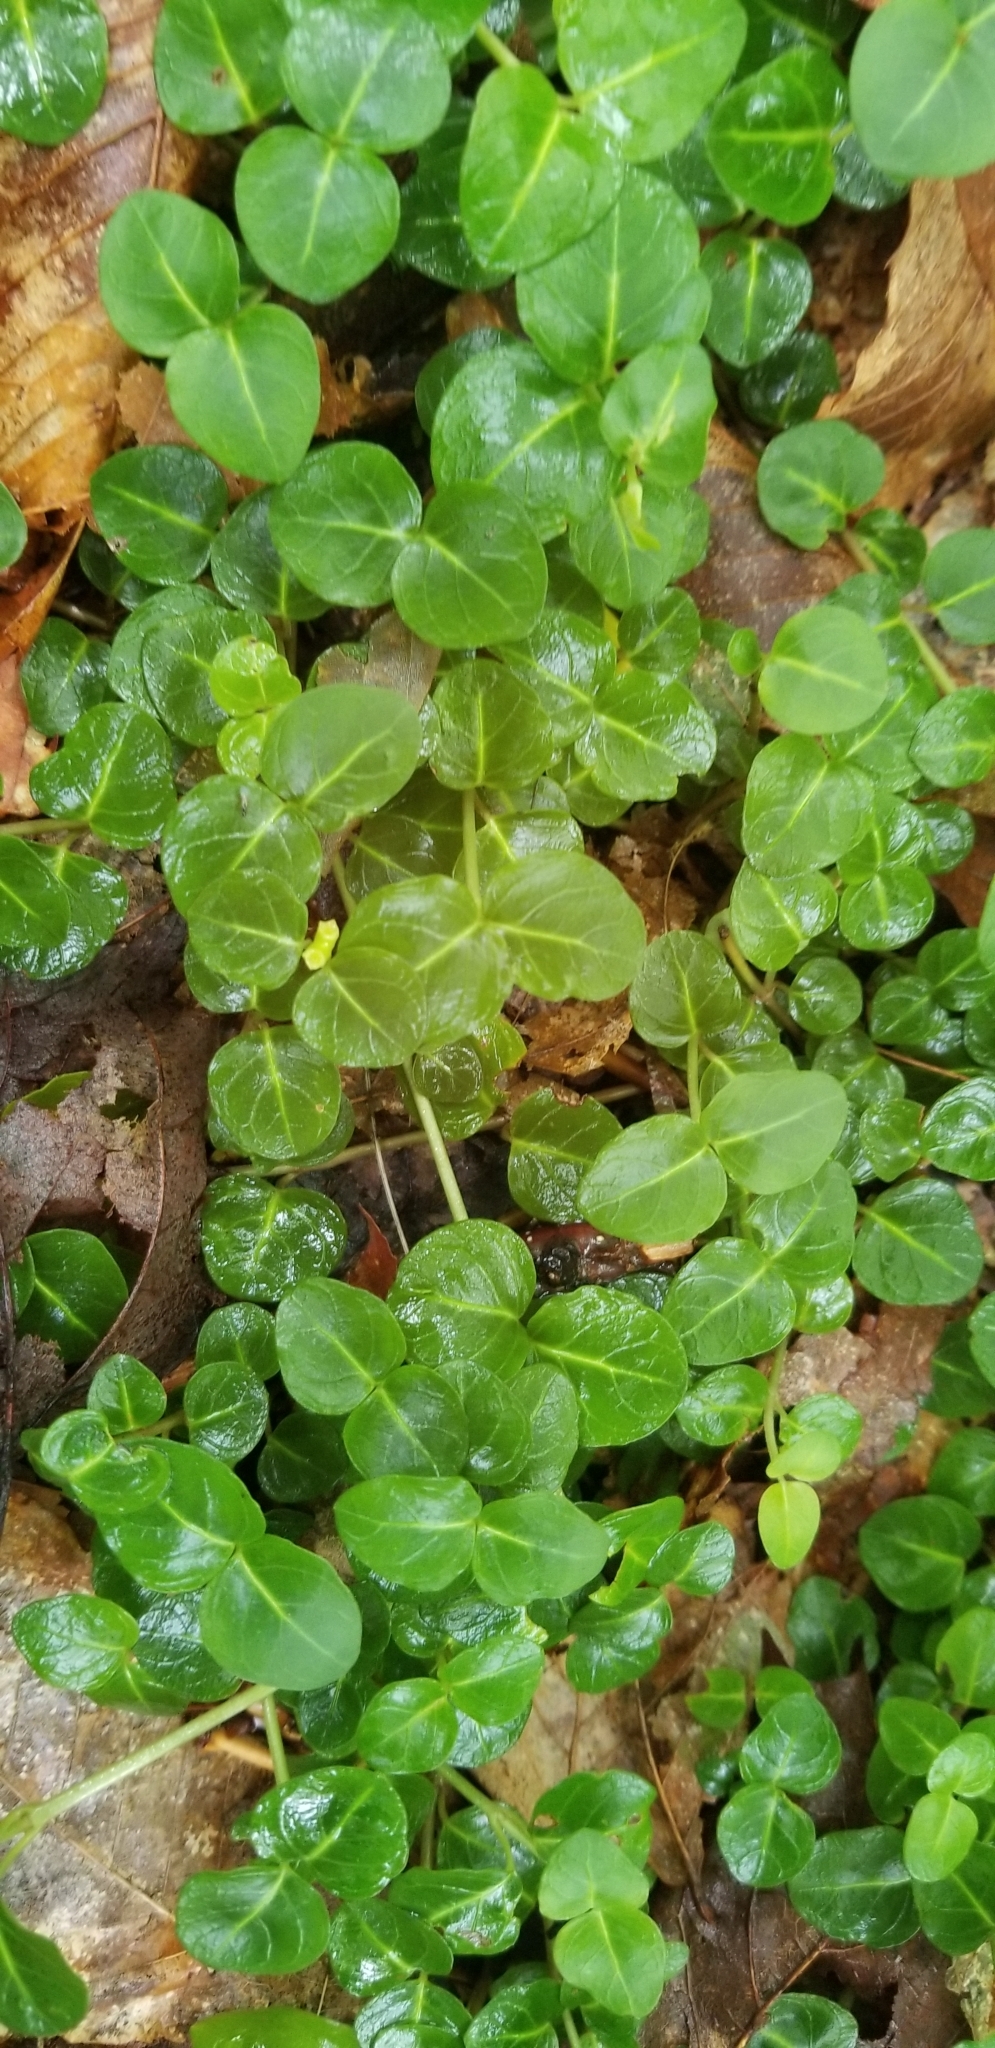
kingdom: Plantae
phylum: Tracheophyta
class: Magnoliopsida
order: Gentianales
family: Rubiaceae
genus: Mitchella
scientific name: Mitchella repens
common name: Partridge-berry
